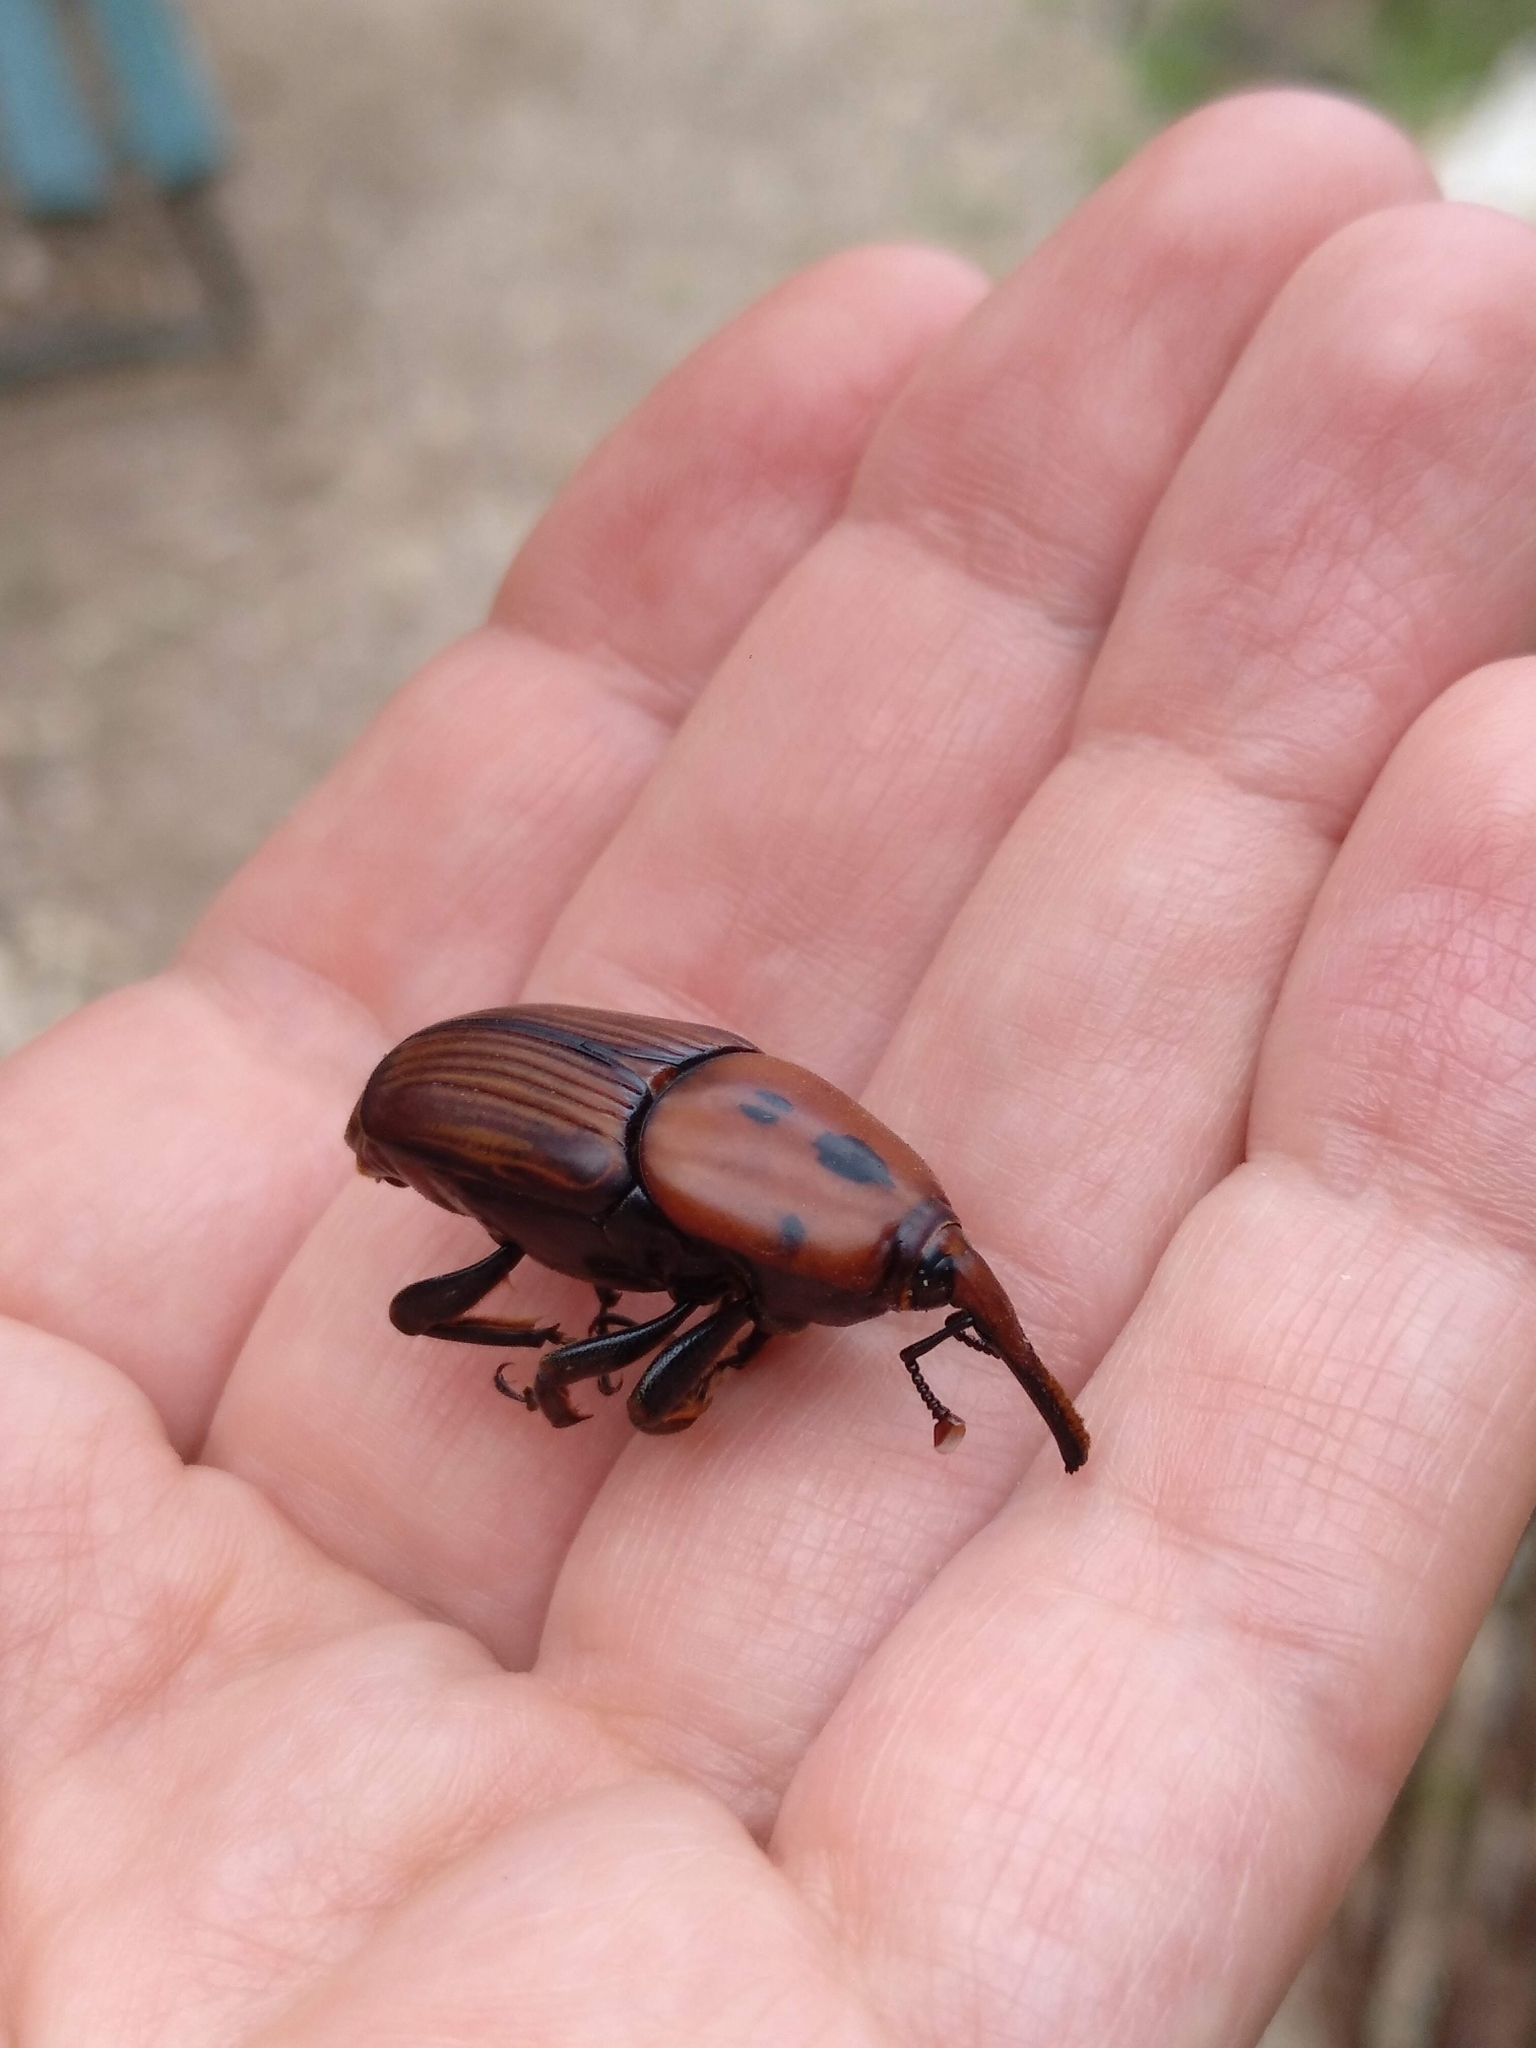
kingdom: Animalia
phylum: Arthropoda
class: Insecta
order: Coleoptera
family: Dryophthoridae
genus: Rhynchophorus
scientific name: Rhynchophorus ferrugineus
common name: Red palm weevil
